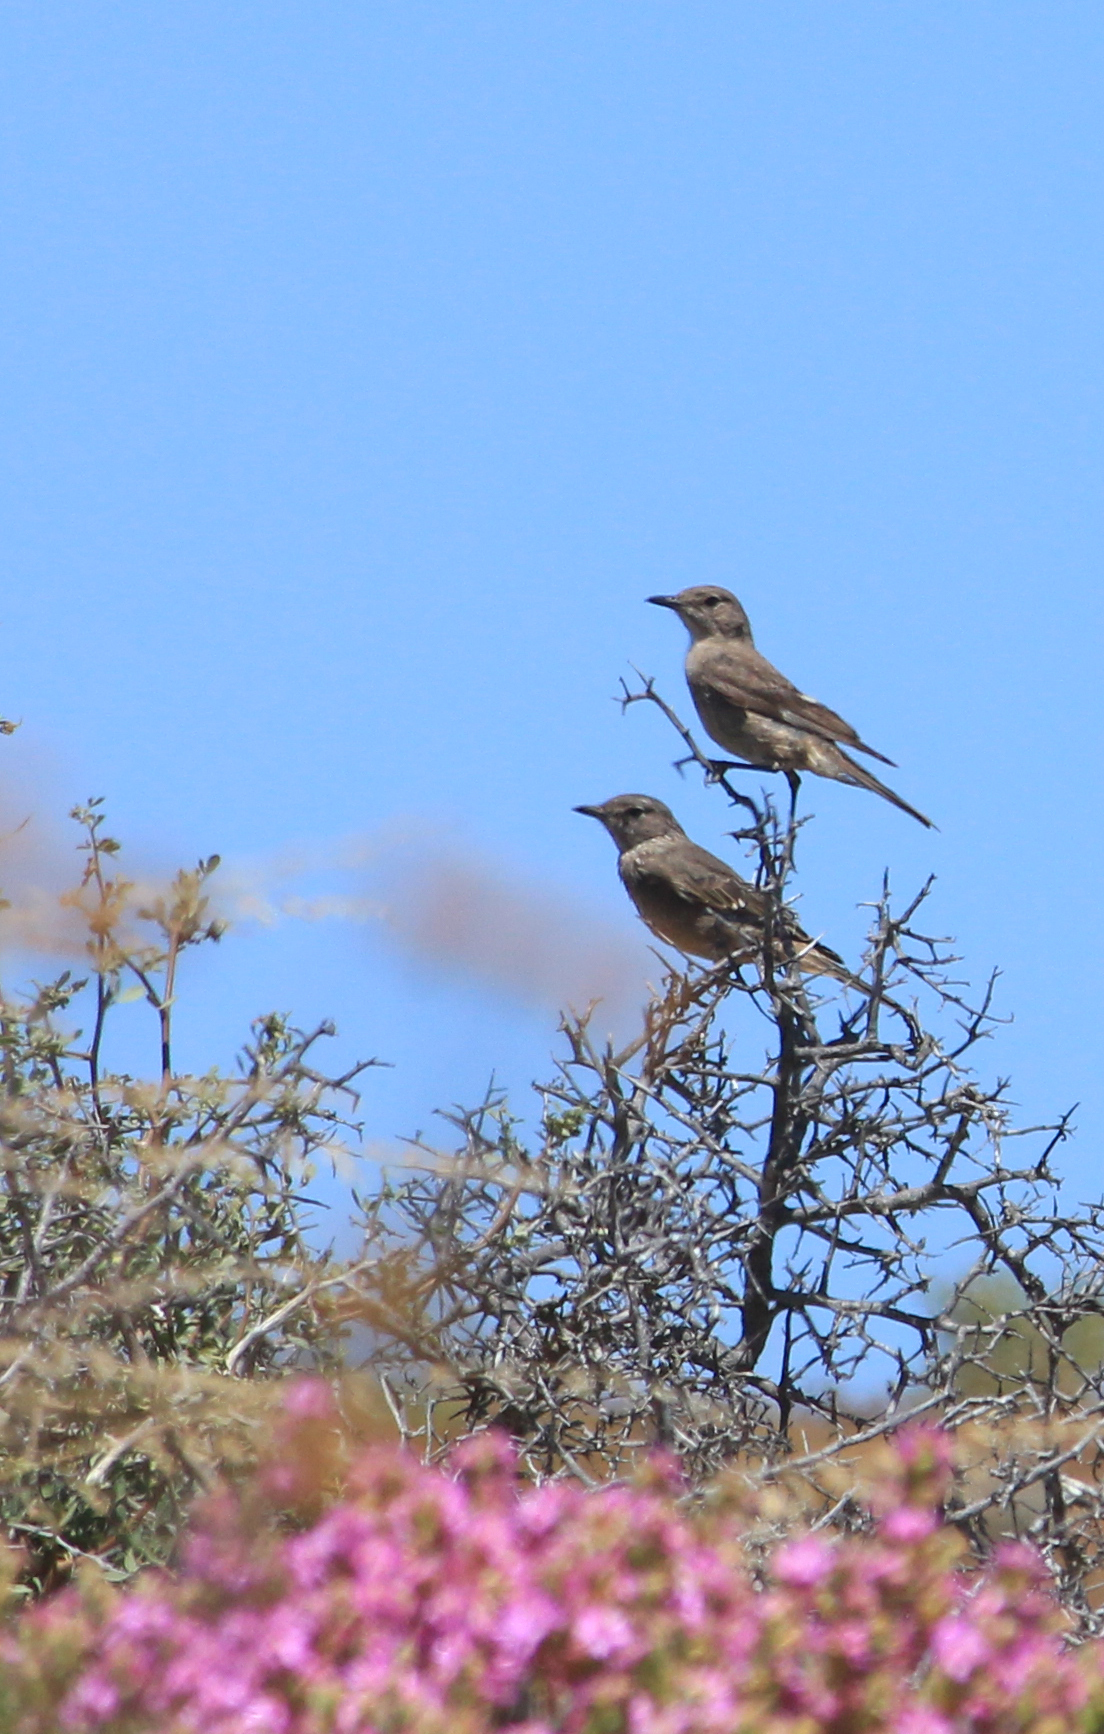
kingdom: Animalia
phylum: Chordata
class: Aves
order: Passeriformes
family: Muscicapidae
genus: Bradornis
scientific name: Bradornis infuscatus
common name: Chat flycatcher
